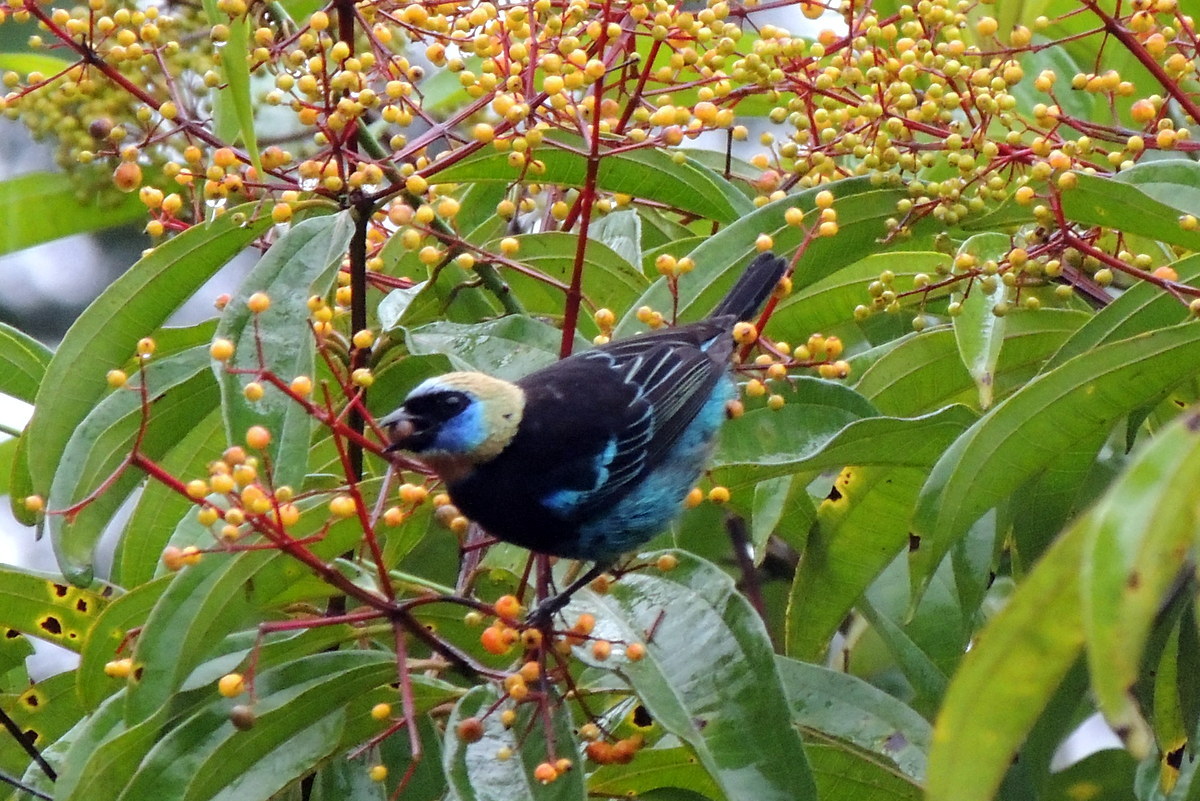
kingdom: Animalia
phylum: Chordata
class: Aves
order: Passeriformes
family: Thraupidae
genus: Stilpnia
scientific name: Stilpnia larvata
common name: Golden-hooded tanager
